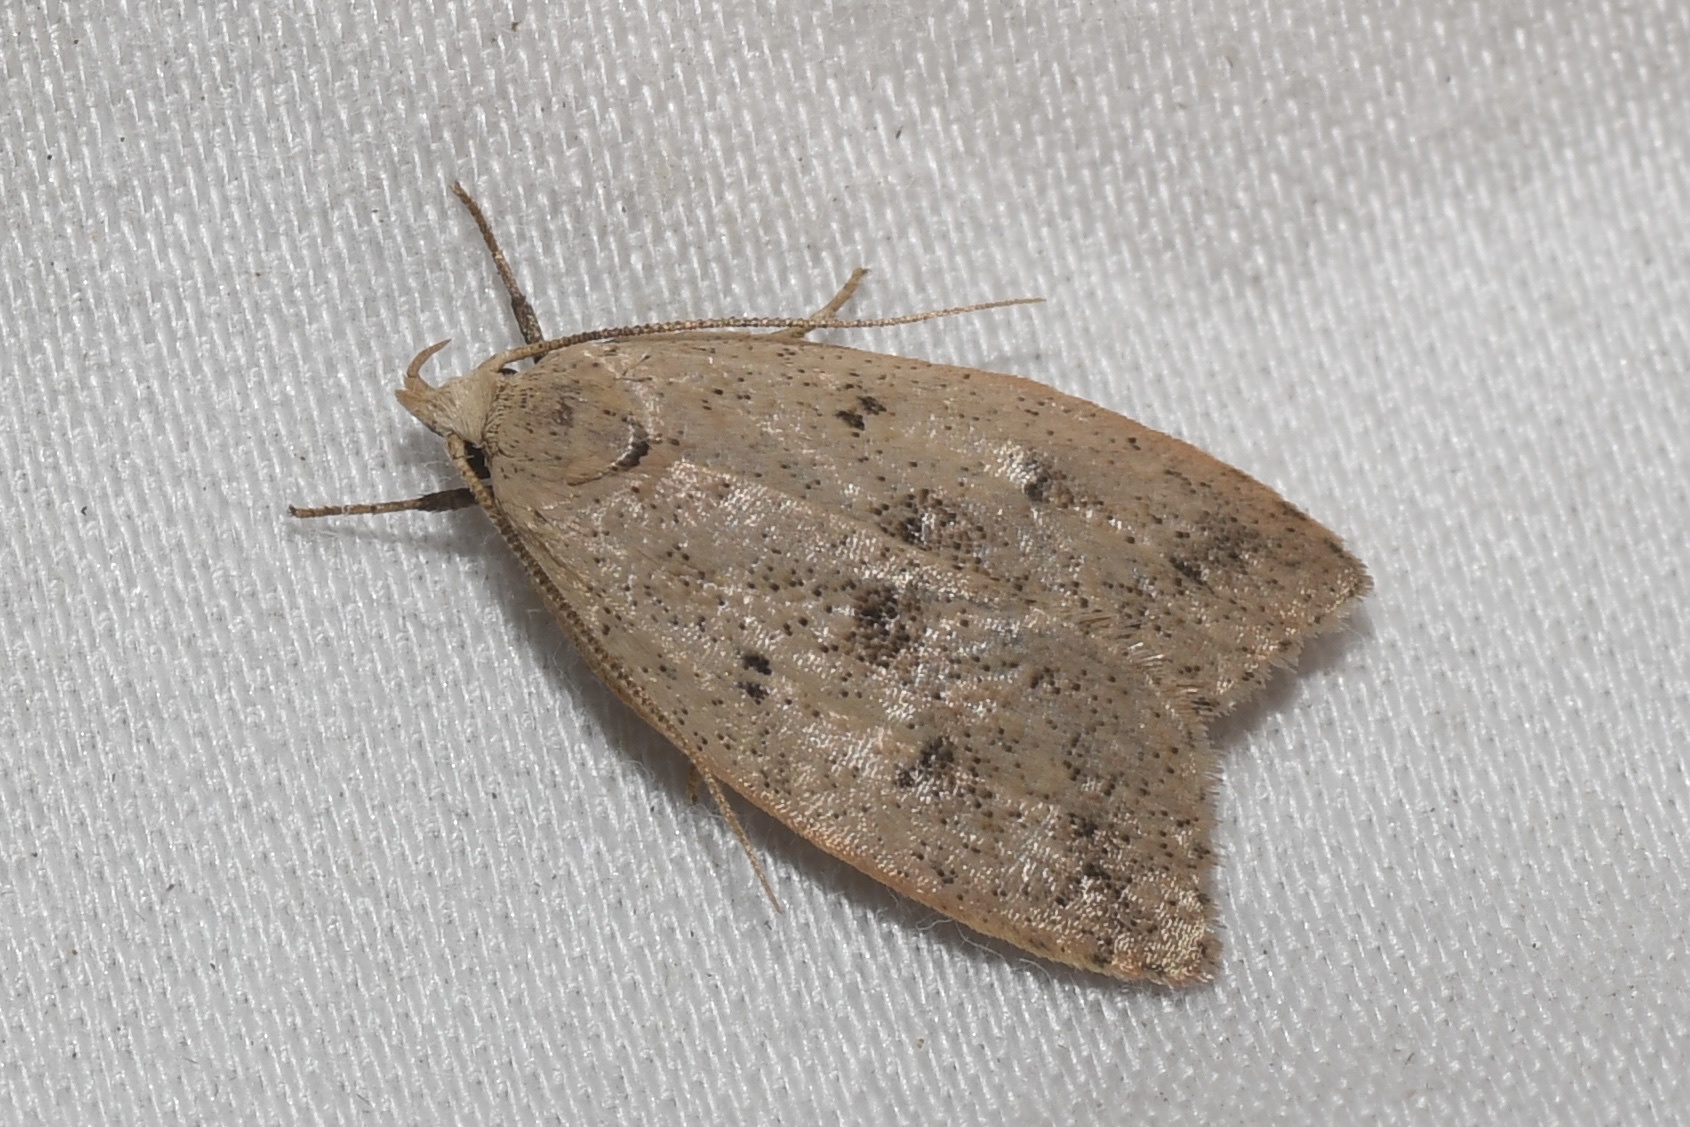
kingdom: Animalia
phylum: Arthropoda
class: Insecta
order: Lepidoptera
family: Peleopodidae
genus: Machimia
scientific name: Machimia tentoriferella
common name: Gold-striped leaftier moth
